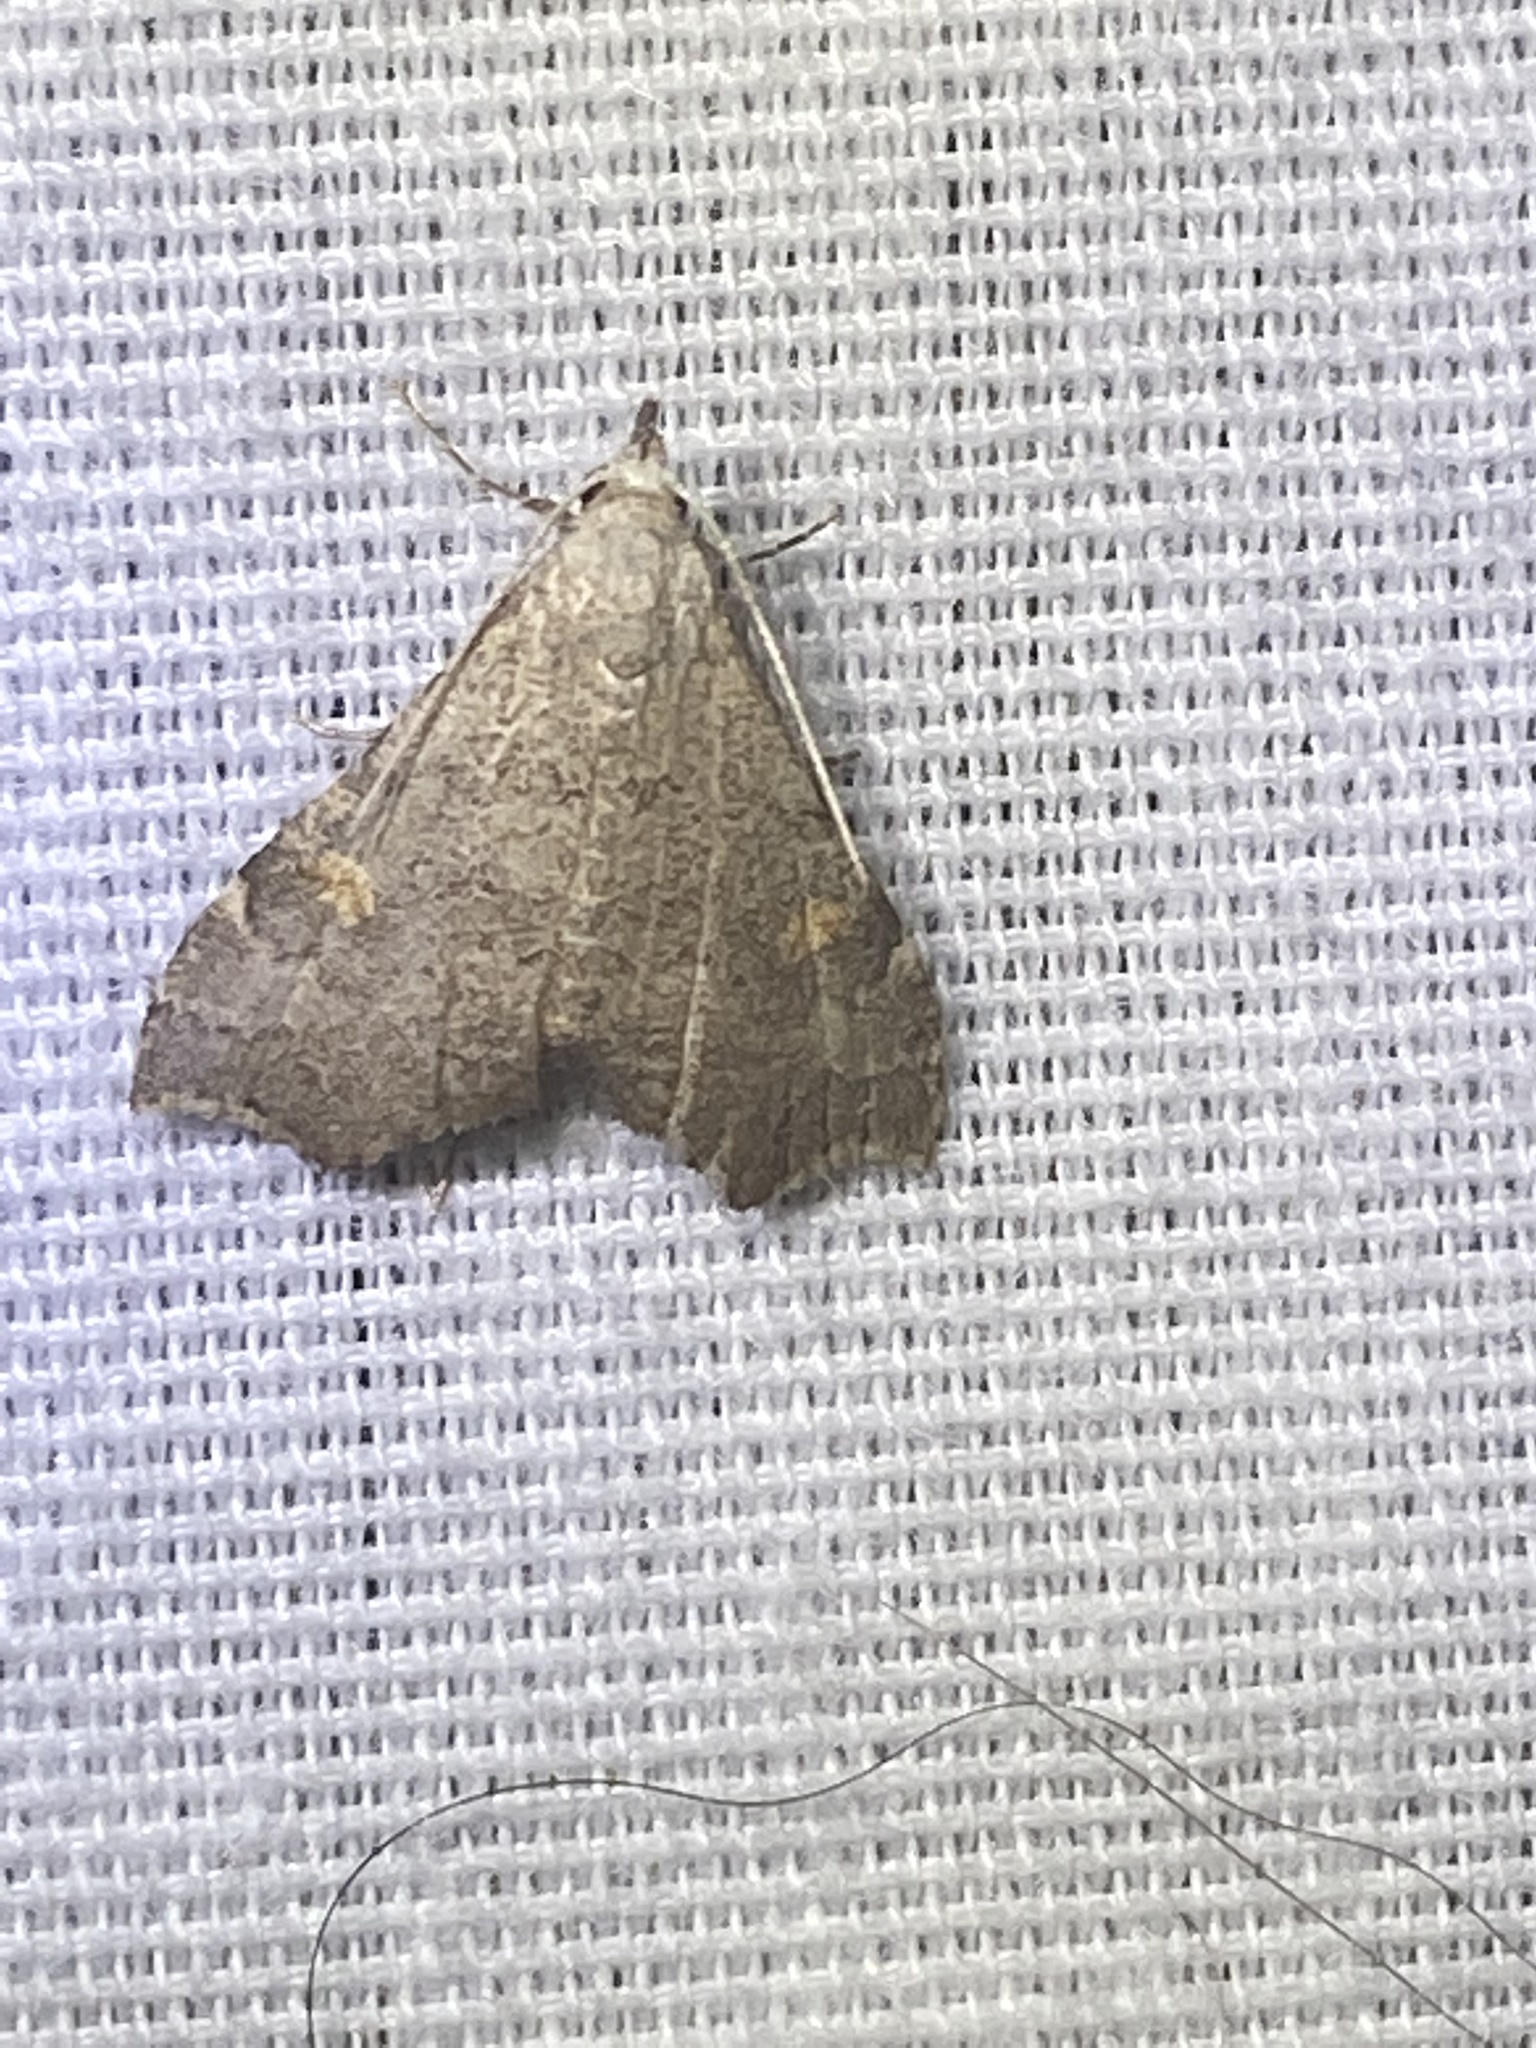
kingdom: Animalia
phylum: Arthropoda
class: Insecta
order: Lepidoptera
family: Erebidae
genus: Redectis
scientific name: Redectis pygmaea
